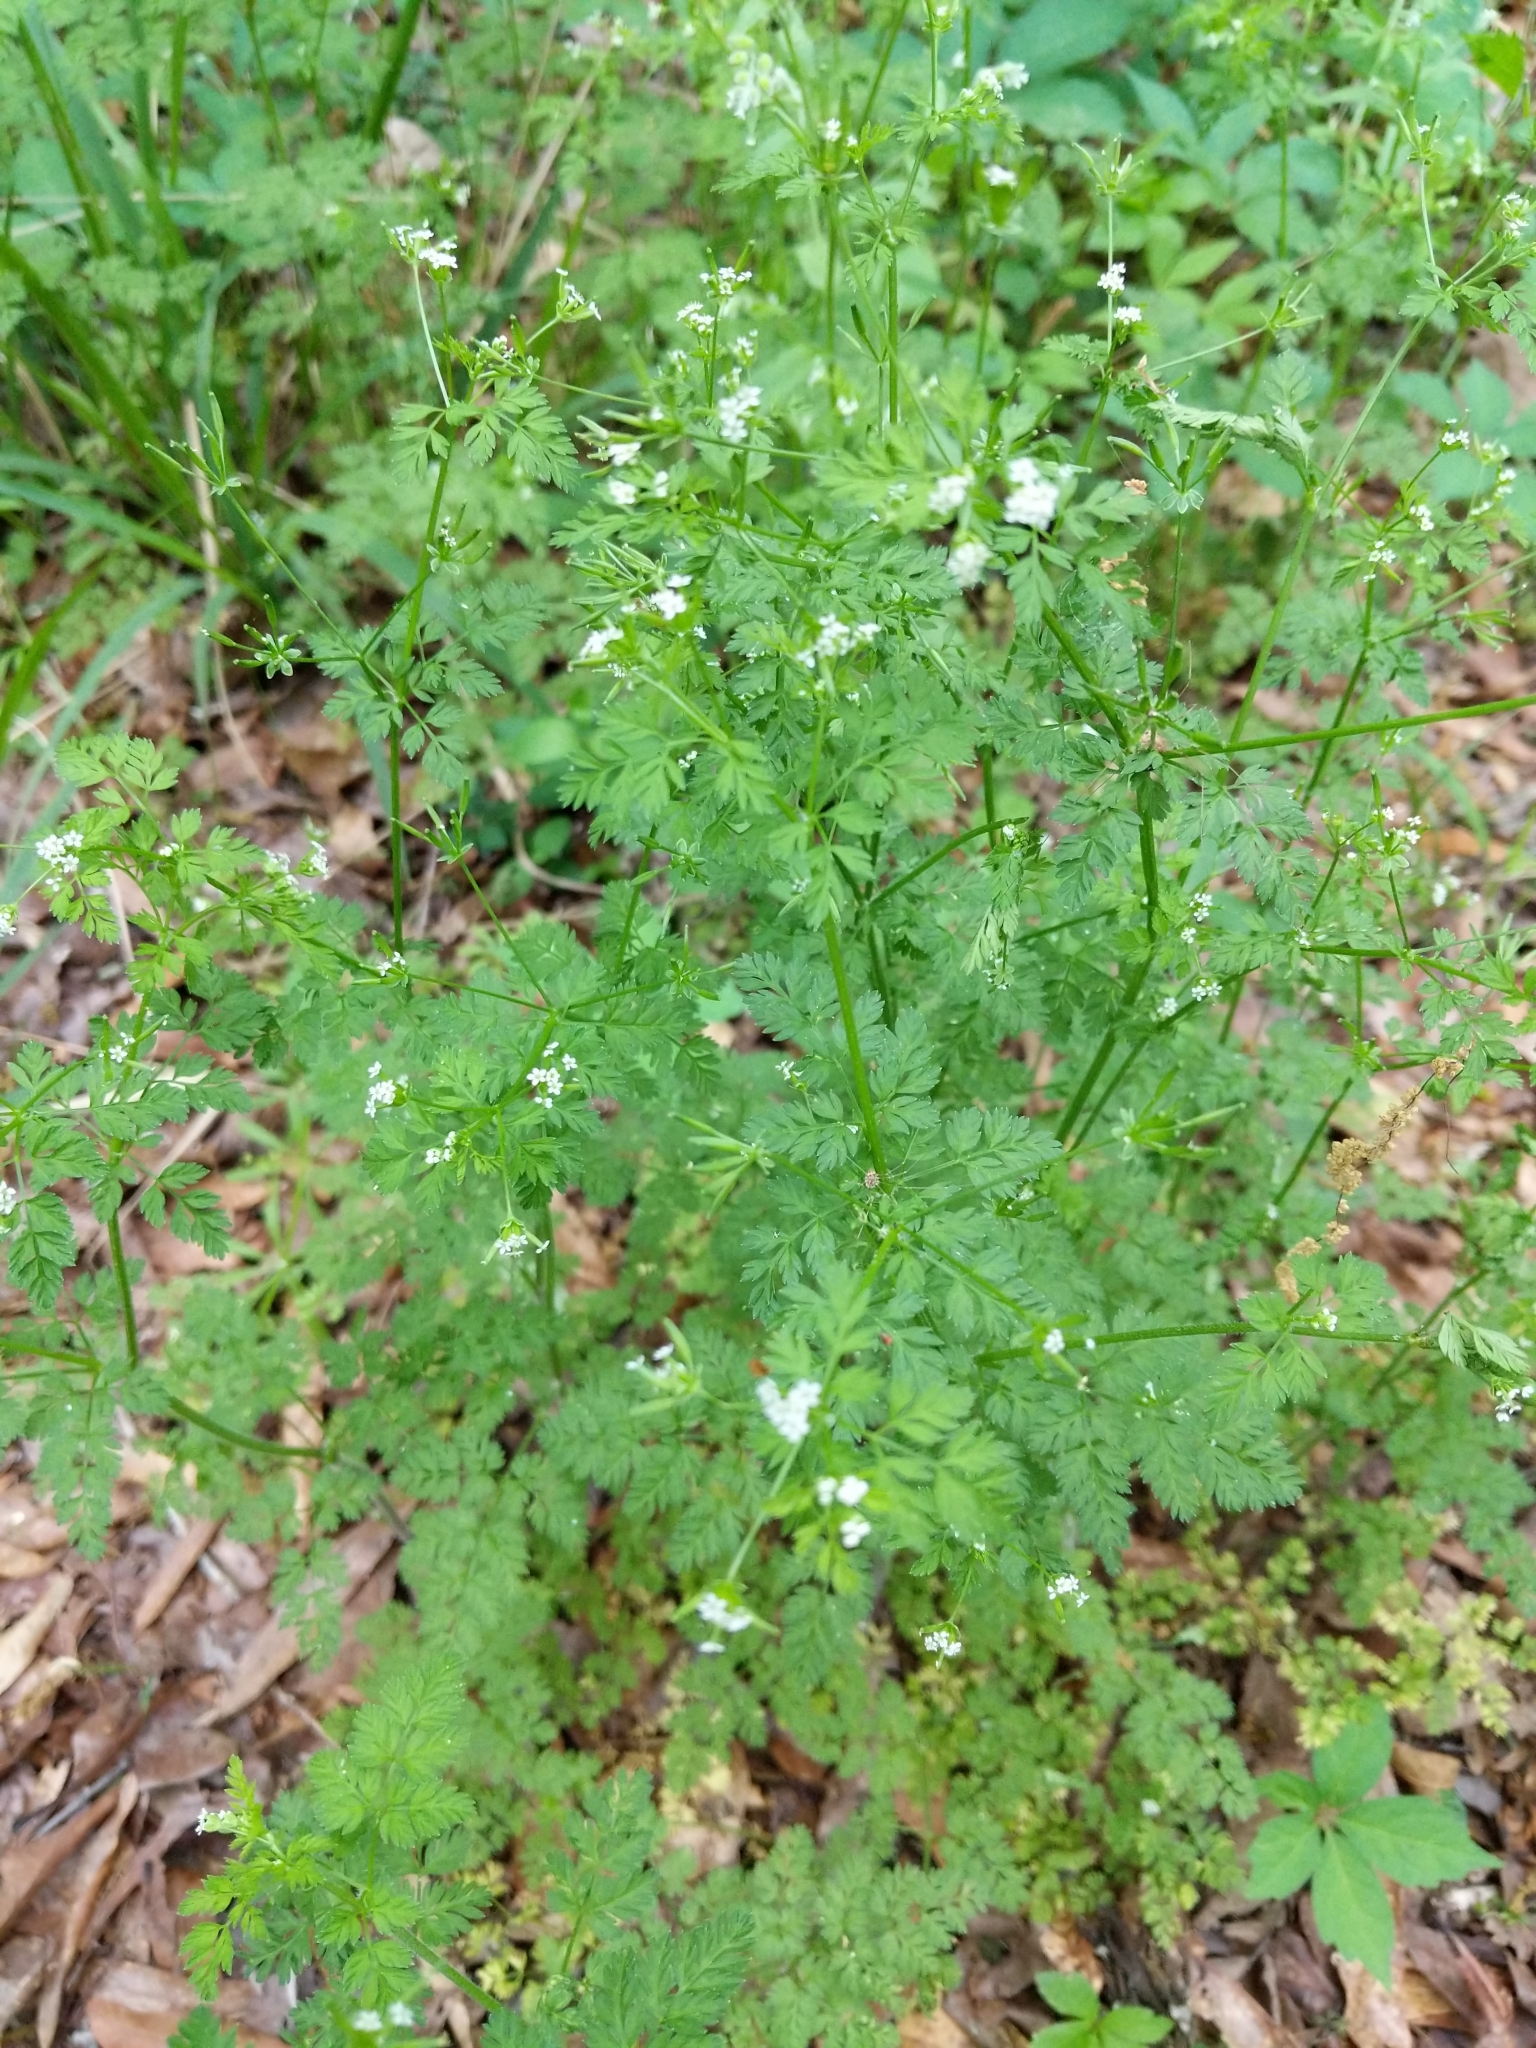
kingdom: Plantae
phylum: Tracheophyta
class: Magnoliopsida
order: Apiales
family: Apiaceae
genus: Chaerophyllum
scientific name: Chaerophyllum tainturieri
